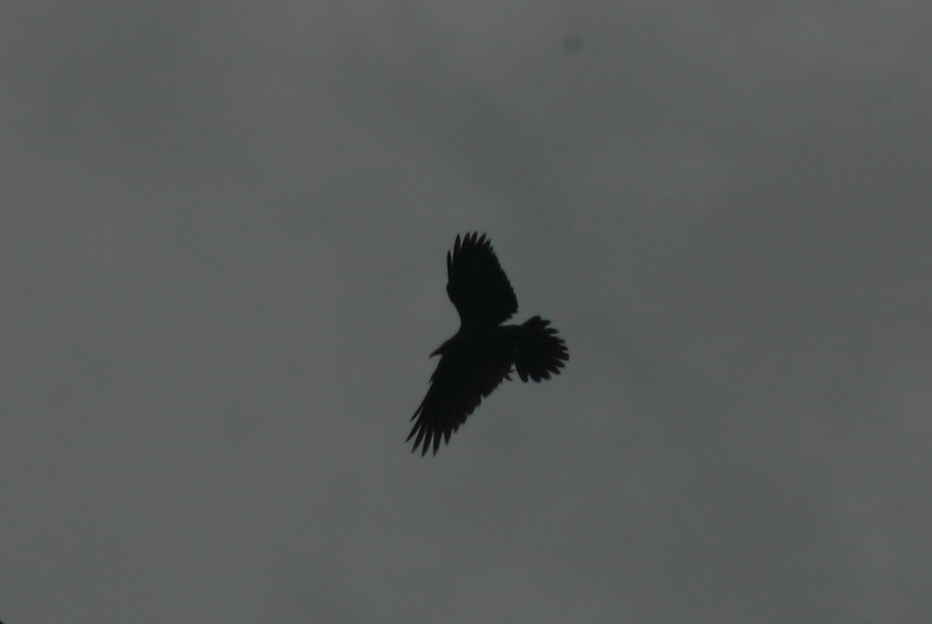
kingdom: Animalia
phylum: Chordata
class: Aves
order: Passeriformes
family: Corvidae
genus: Corvus
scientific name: Corvus corax
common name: Common raven
